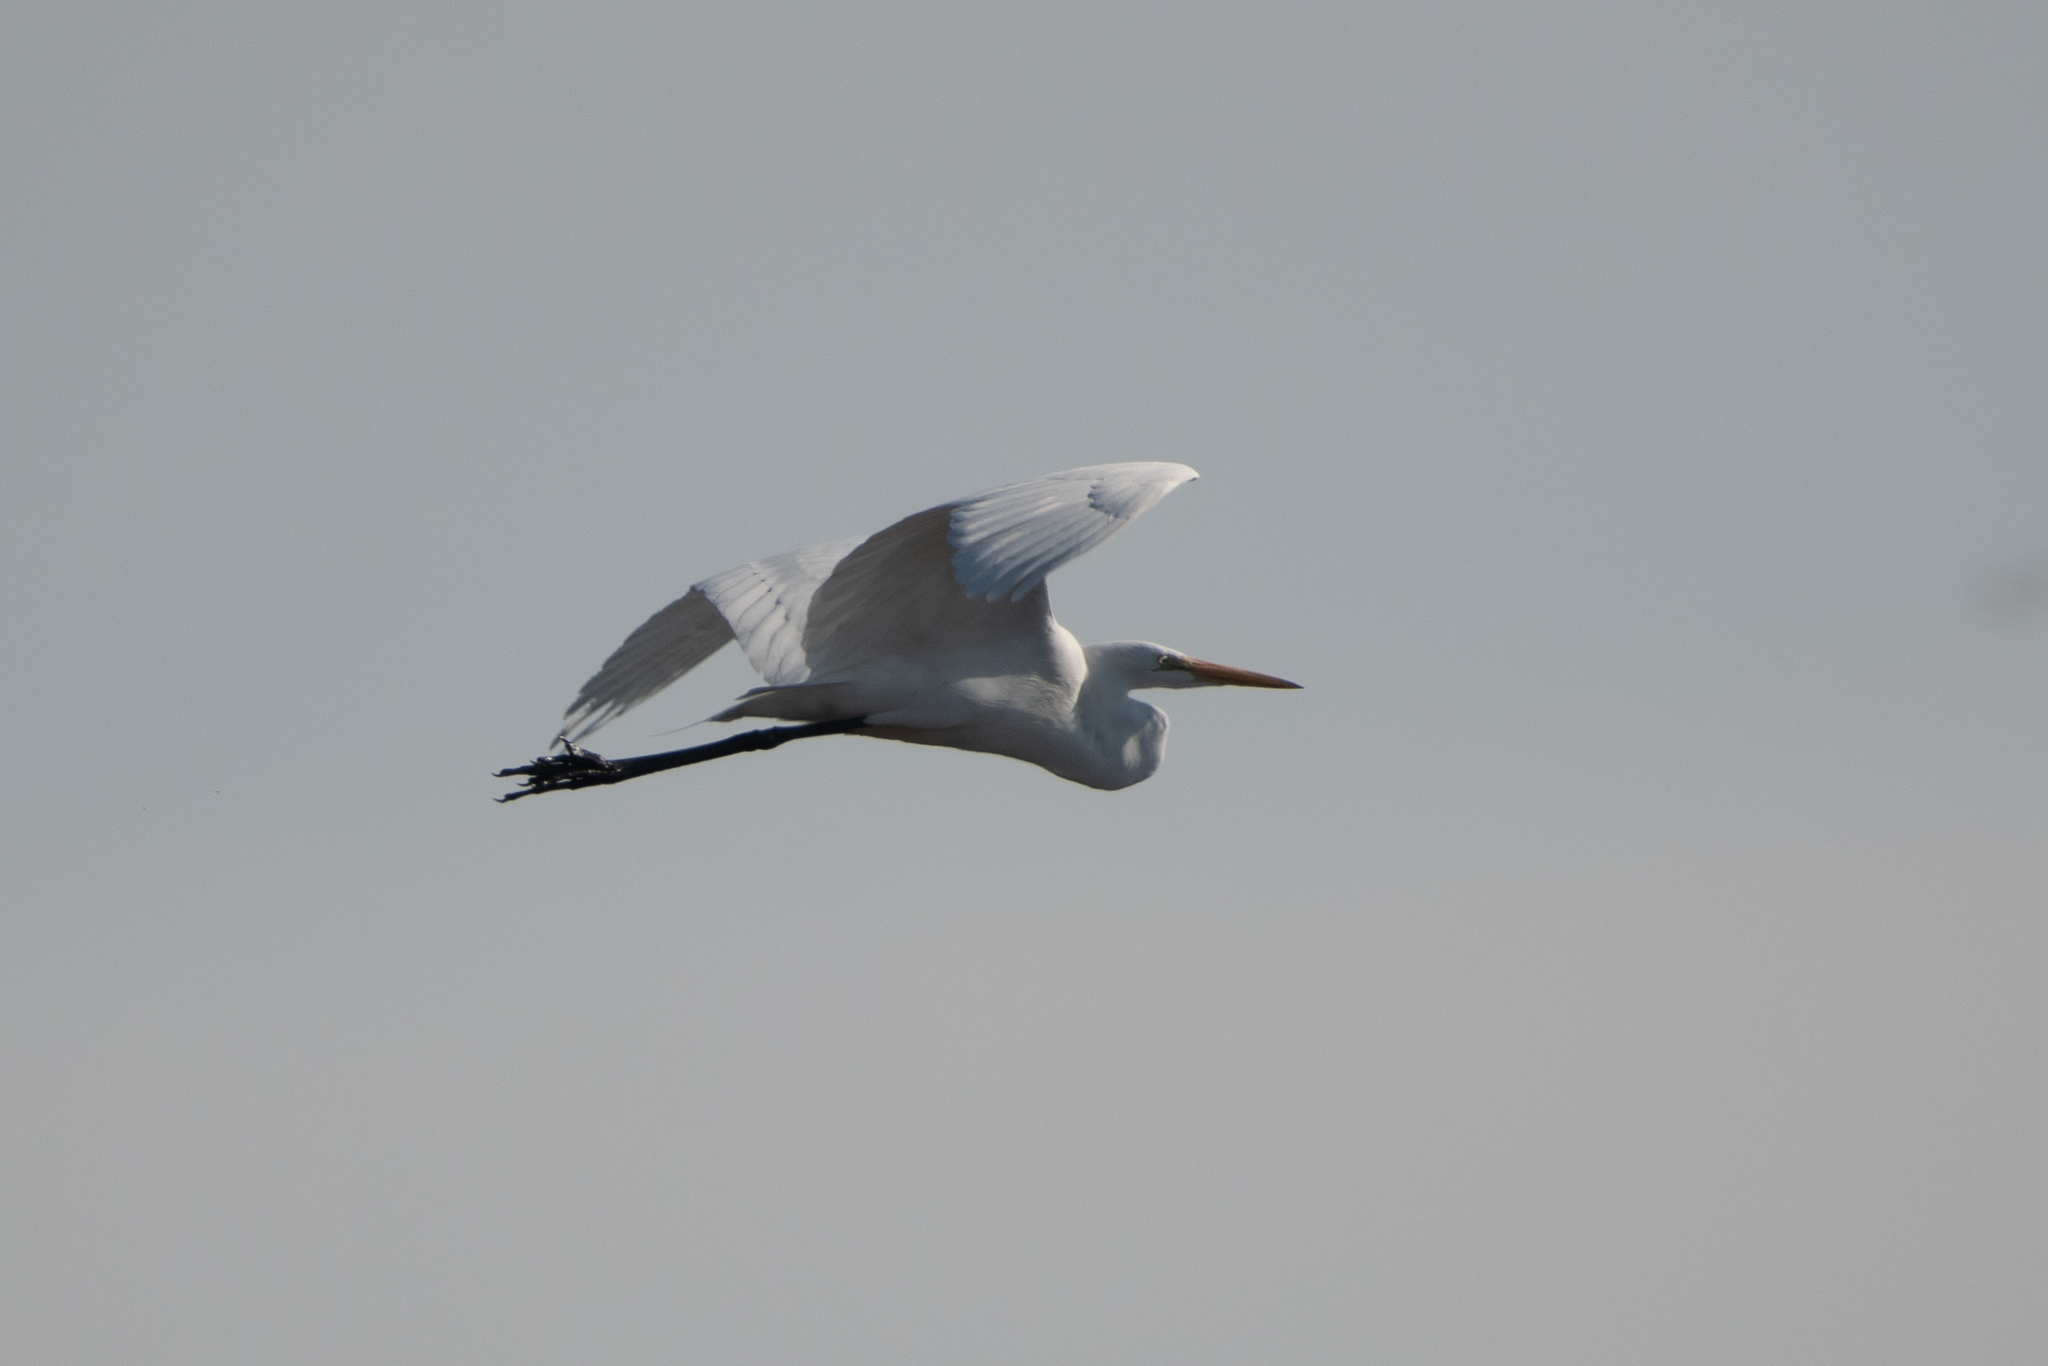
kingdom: Animalia
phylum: Chordata
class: Aves
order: Pelecaniformes
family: Ardeidae
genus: Ardea
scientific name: Ardea alba
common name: Great egret
